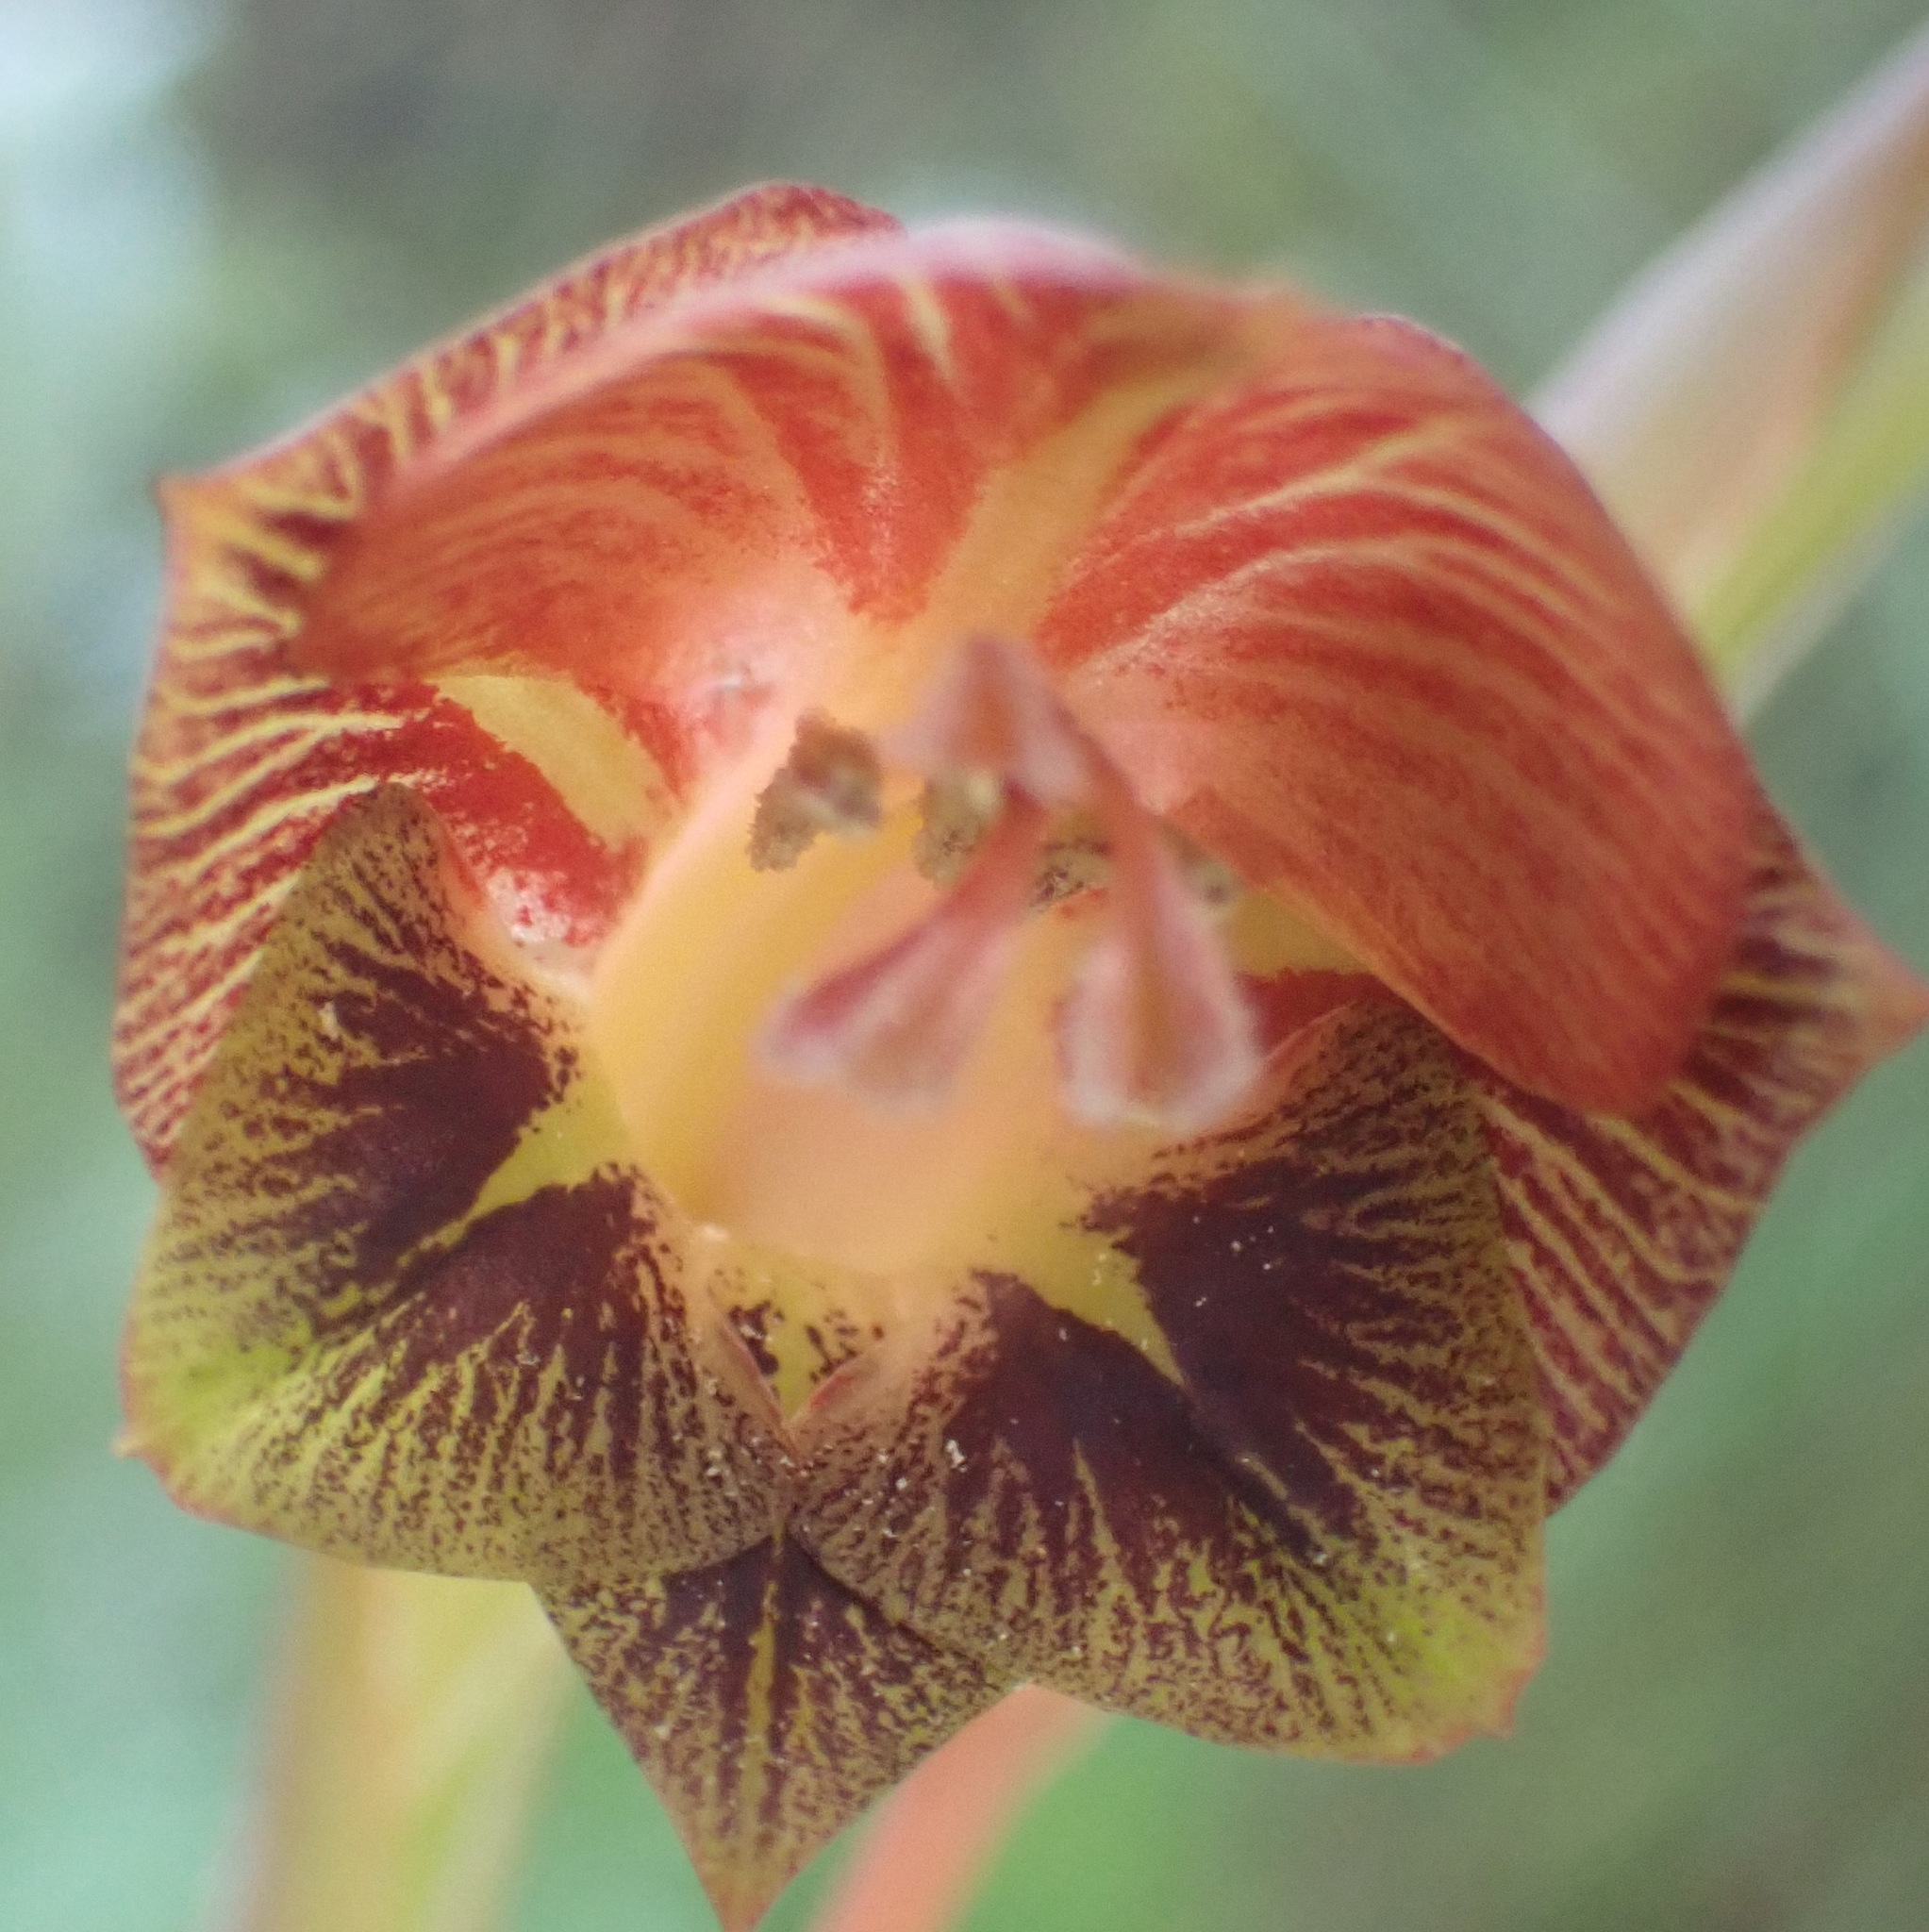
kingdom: Plantae
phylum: Tracheophyta
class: Liliopsida
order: Asparagales
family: Iridaceae
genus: Gladiolus
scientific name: Gladiolus fourcadei
